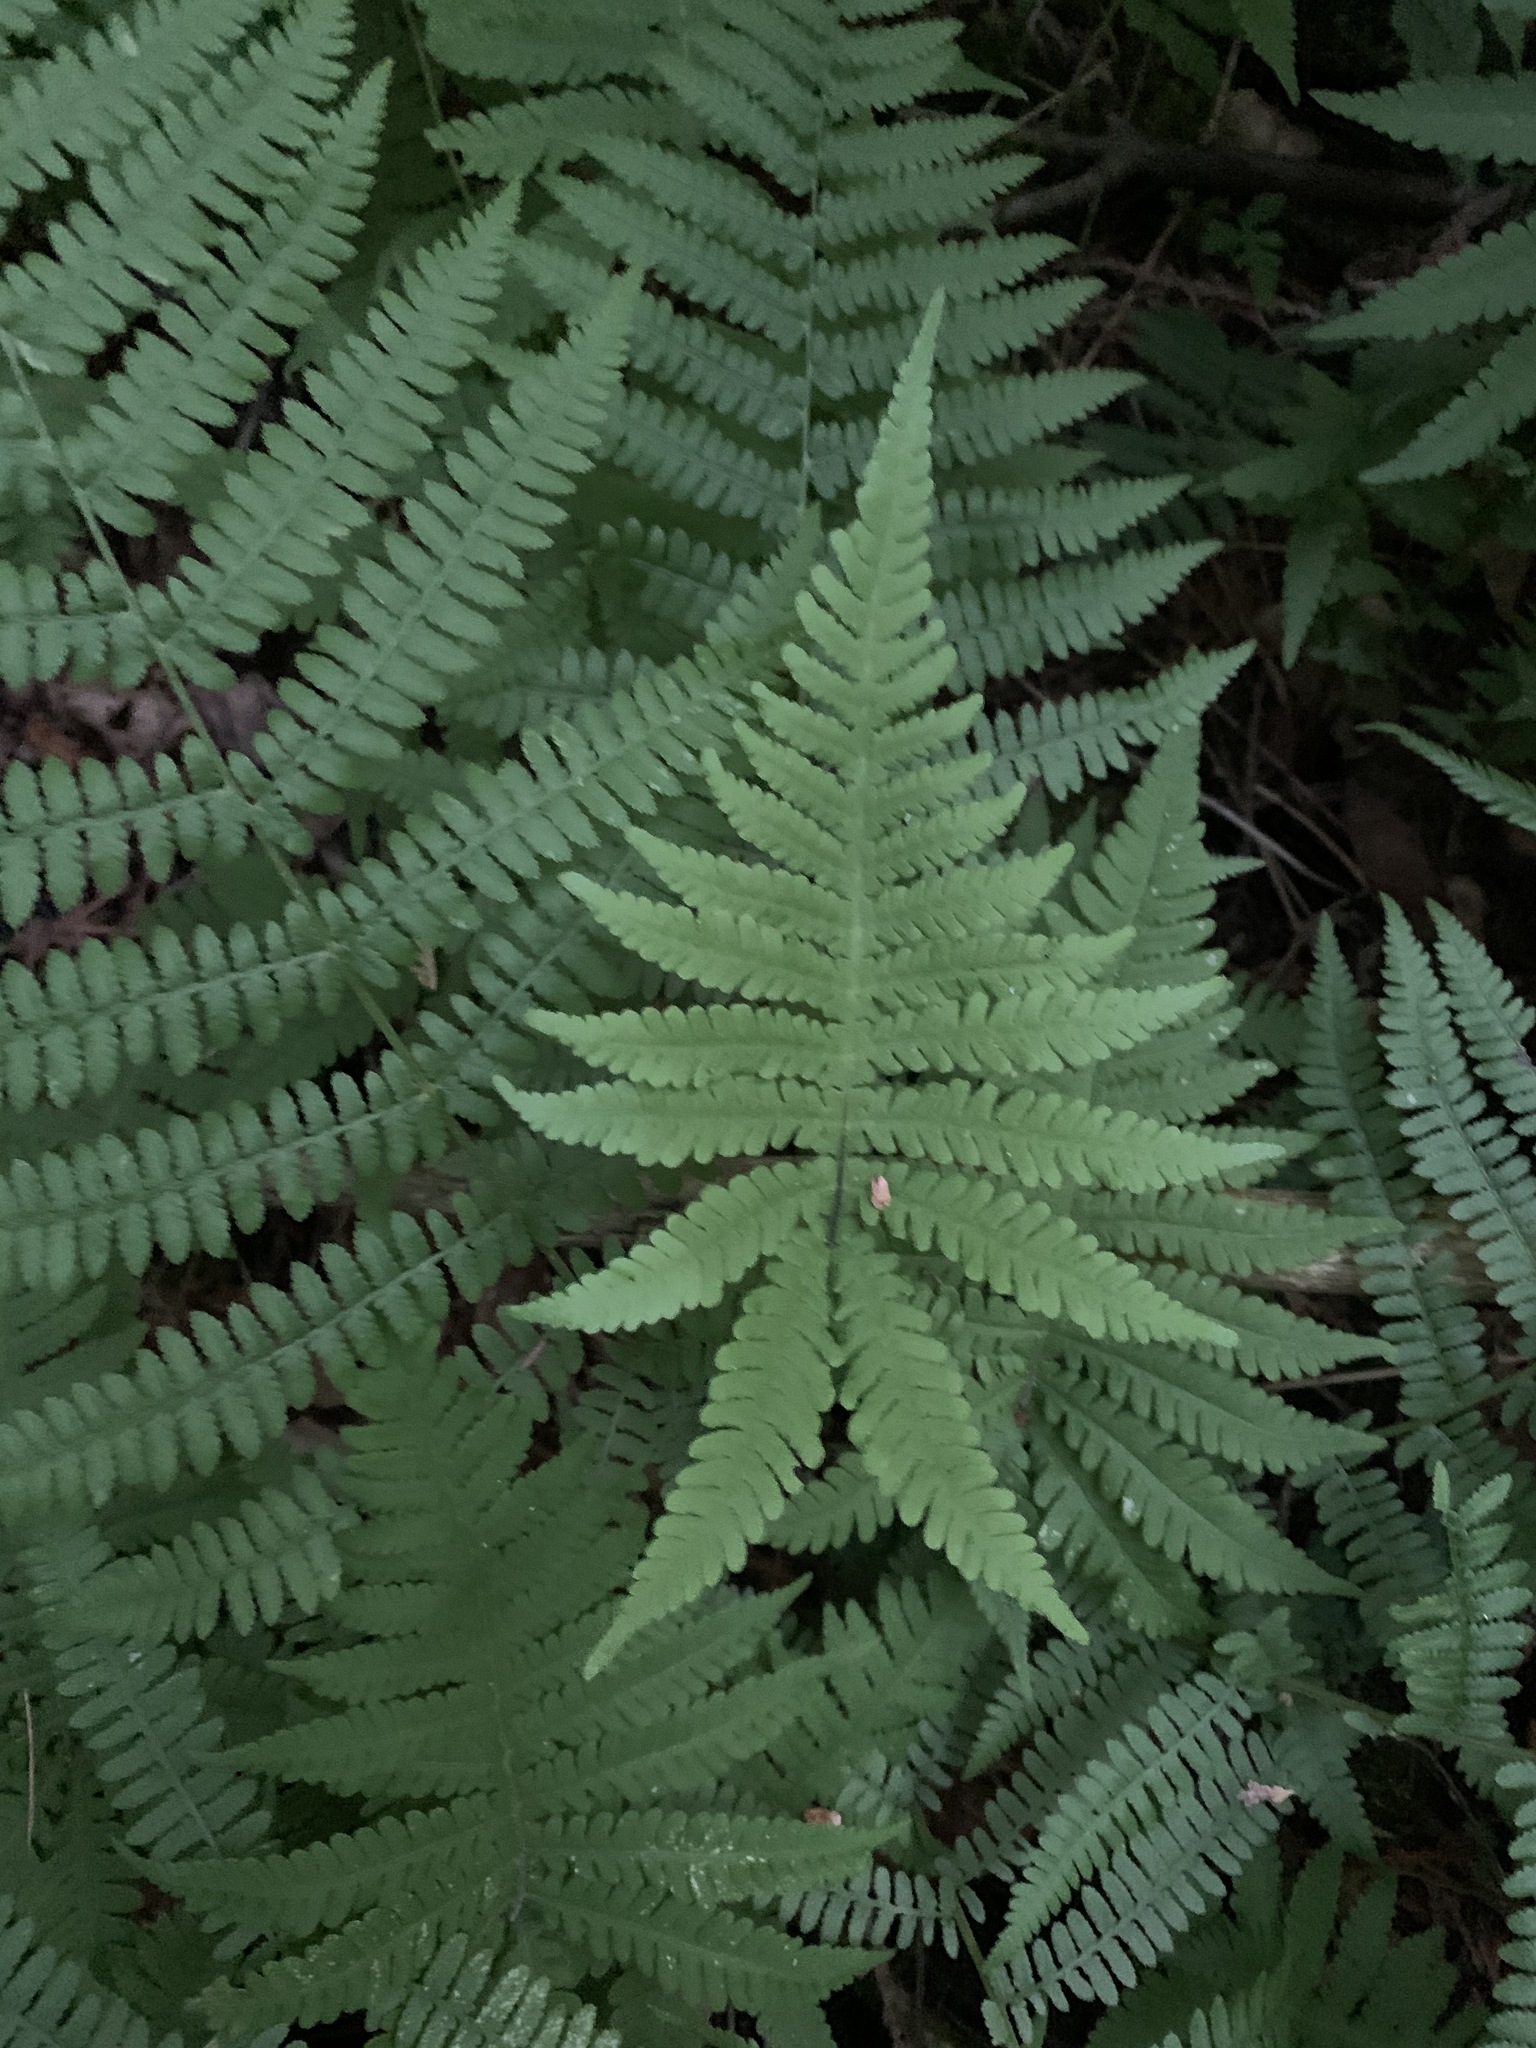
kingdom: Plantae
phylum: Tracheophyta
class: Polypodiopsida
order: Polypodiales
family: Thelypteridaceae
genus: Phegopteris
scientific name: Phegopteris connectilis
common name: Beech fern
